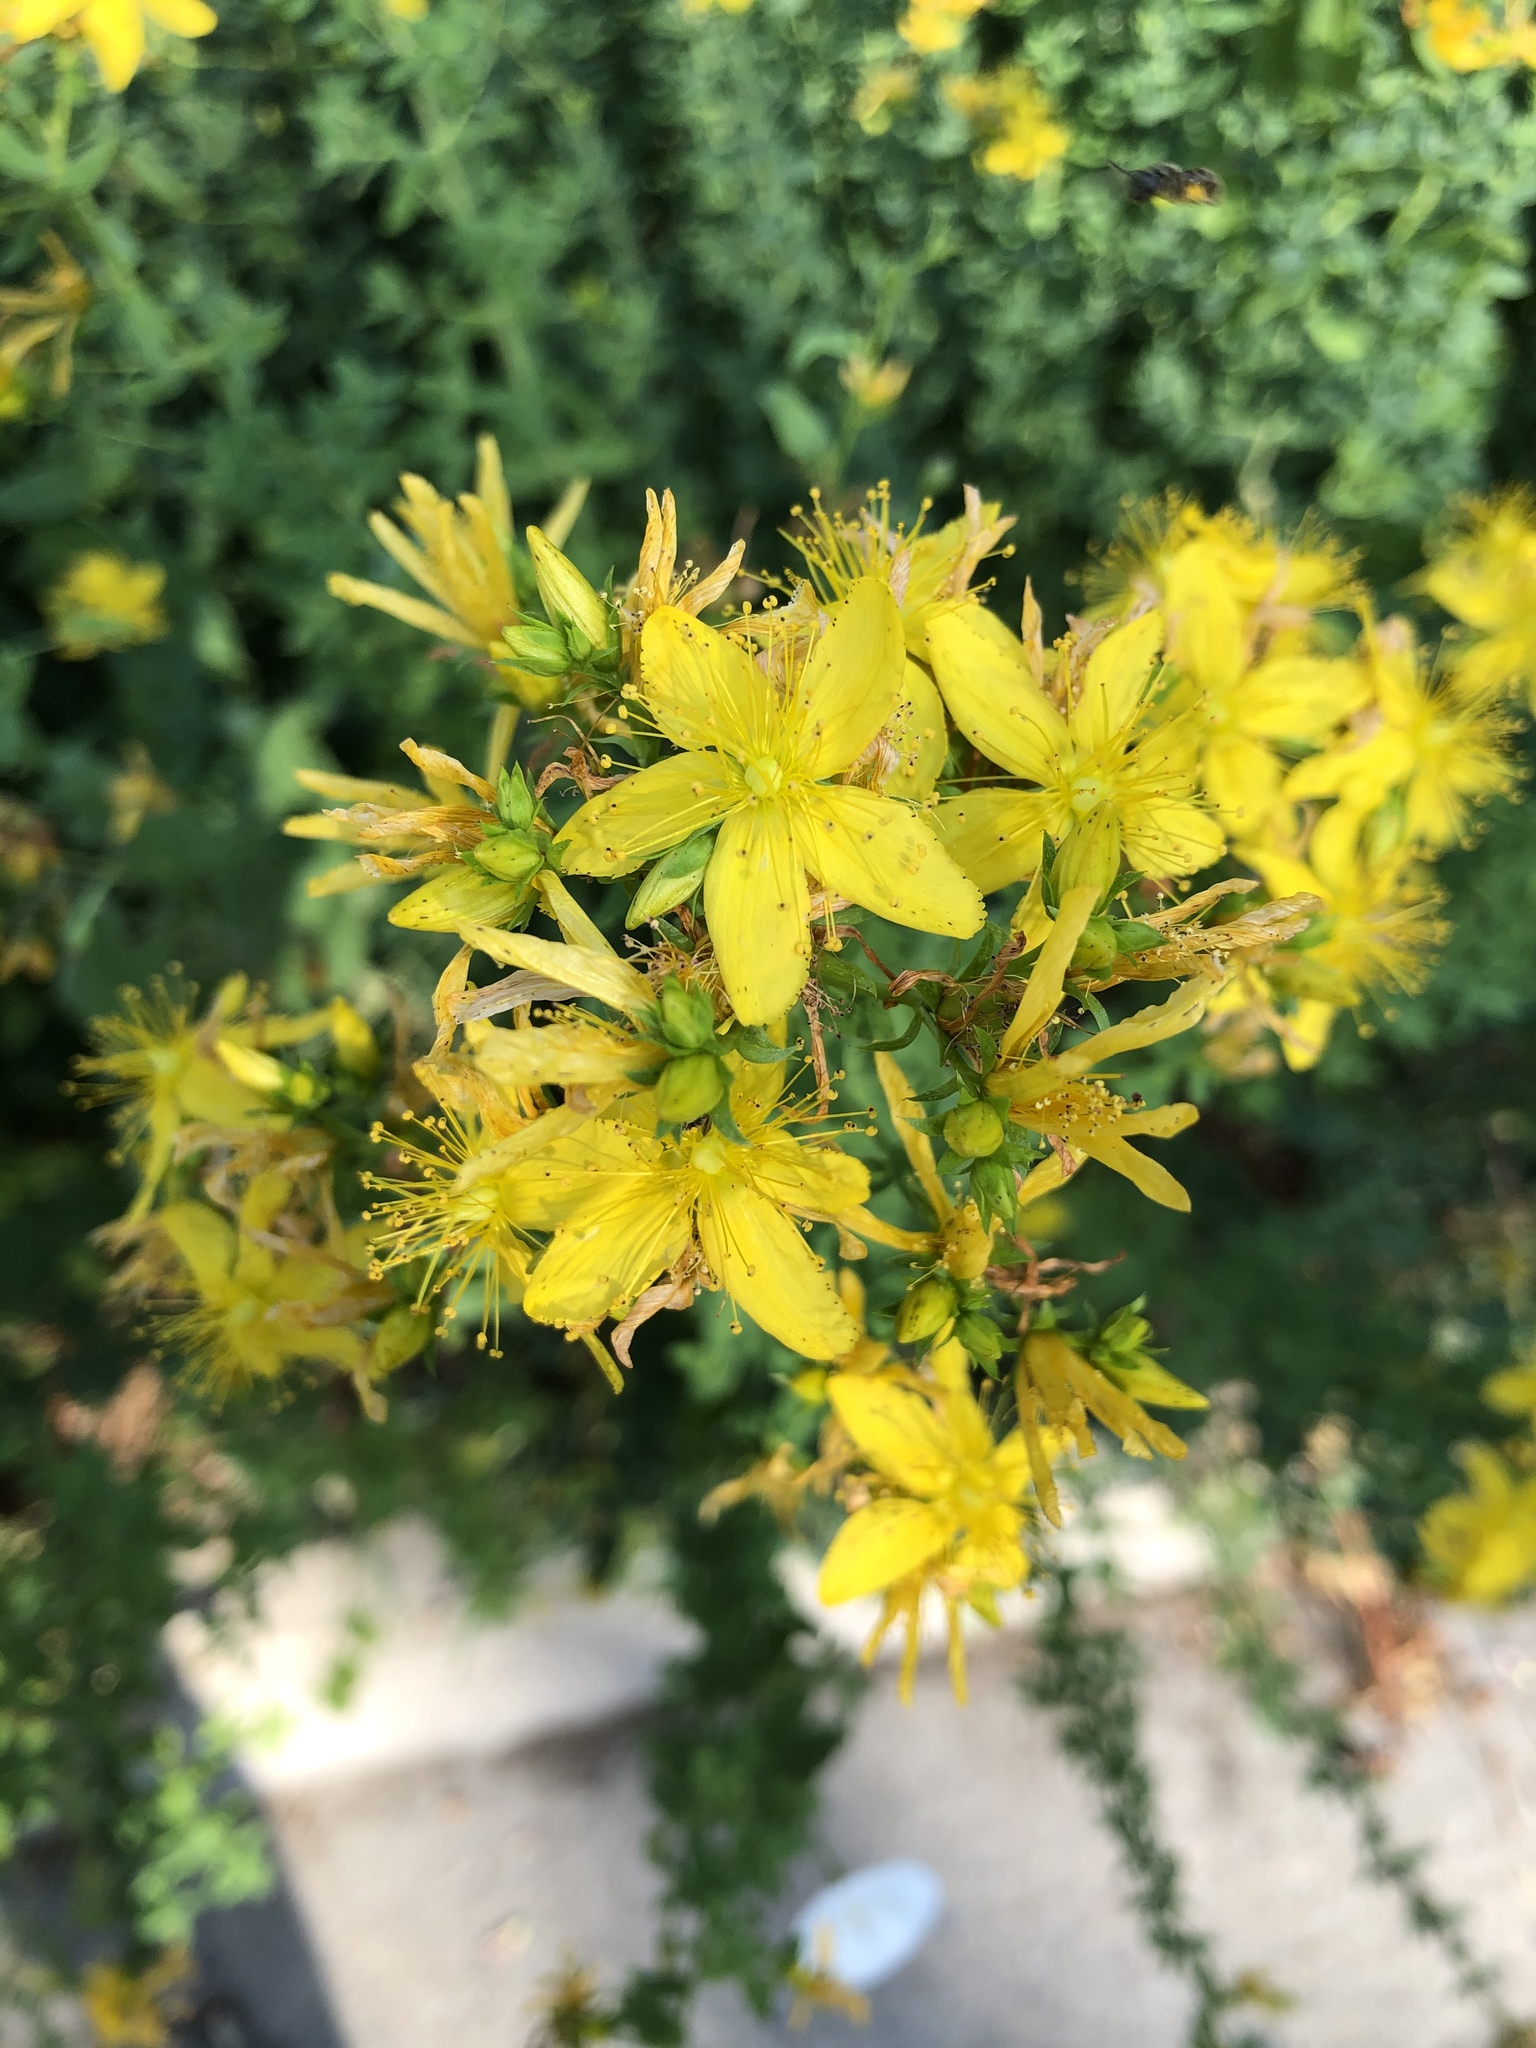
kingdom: Plantae
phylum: Tracheophyta
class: Magnoliopsida
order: Malpighiales
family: Hypericaceae
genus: Hypericum
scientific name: Hypericum perforatum
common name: Common st. johnswort
